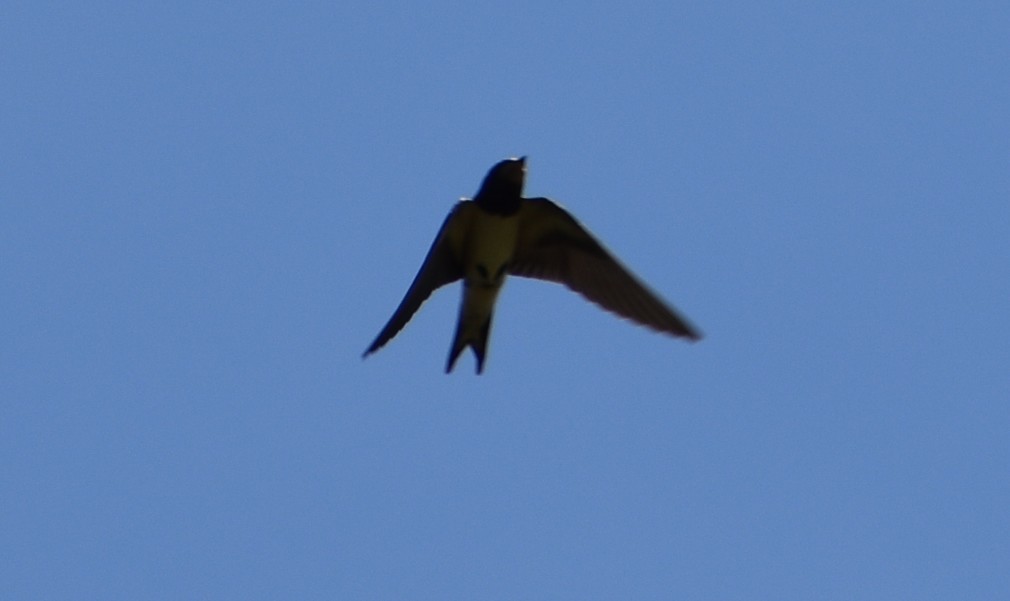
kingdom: Animalia
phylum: Chordata
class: Aves
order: Passeriformes
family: Hirundinidae
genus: Hirundo
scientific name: Hirundo rustica
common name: Barn swallow
